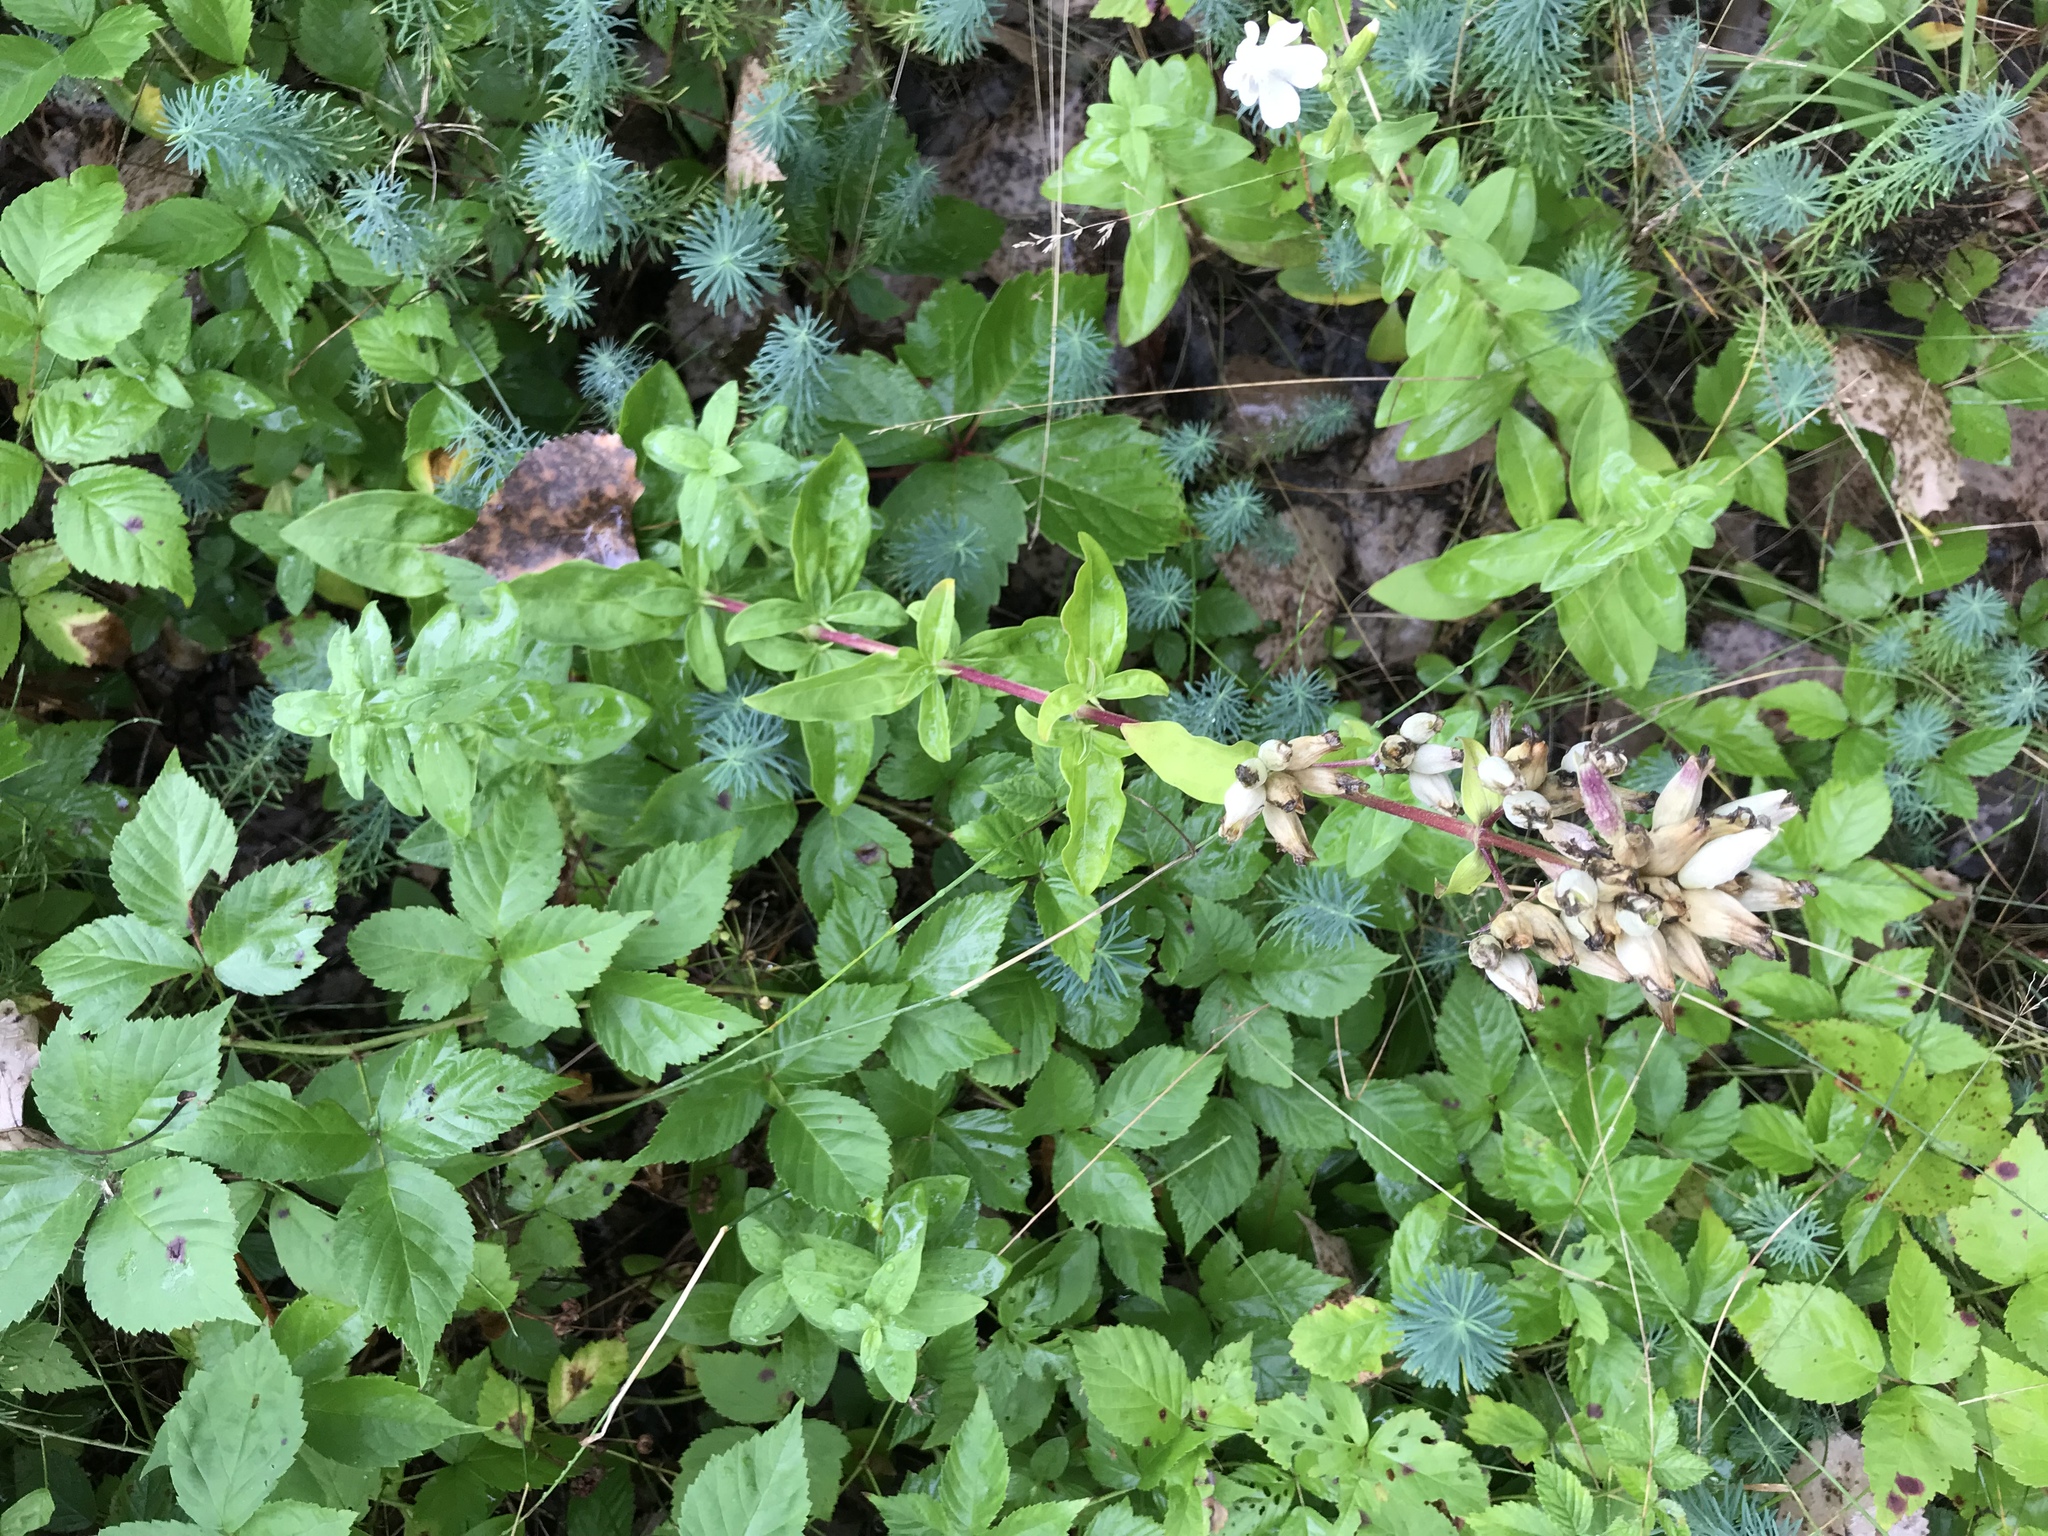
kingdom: Plantae
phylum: Tracheophyta
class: Magnoliopsida
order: Caryophyllales
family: Caryophyllaceae
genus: Saponaria
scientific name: Saponaria officinalis
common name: Soapwort
